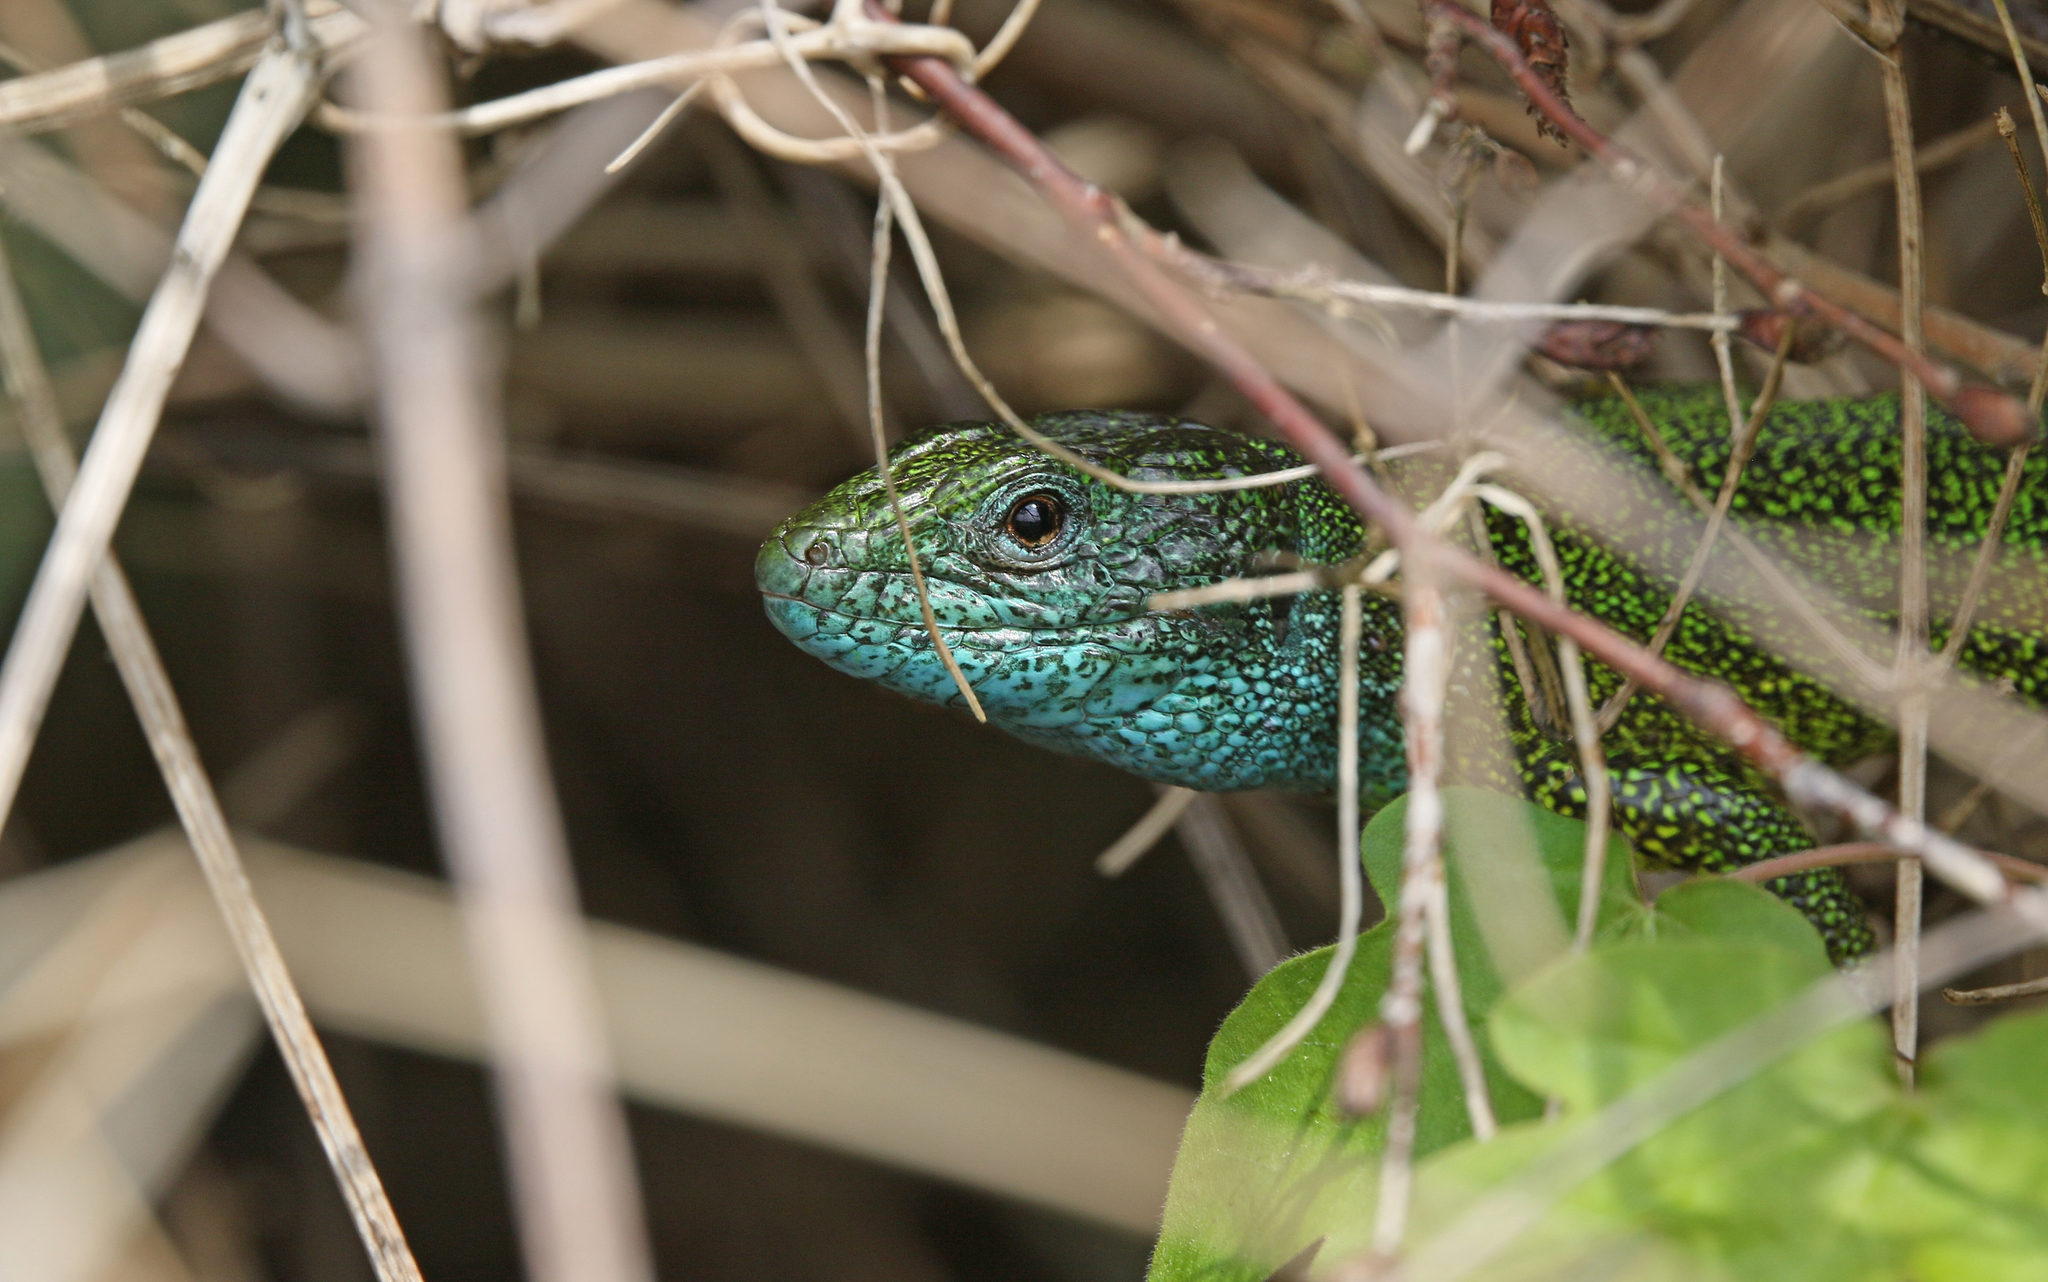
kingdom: Animalia
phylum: Chordata
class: Squamata
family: Lacertidae
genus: Lacerta
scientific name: Lacerta viridis
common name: European green lizard
